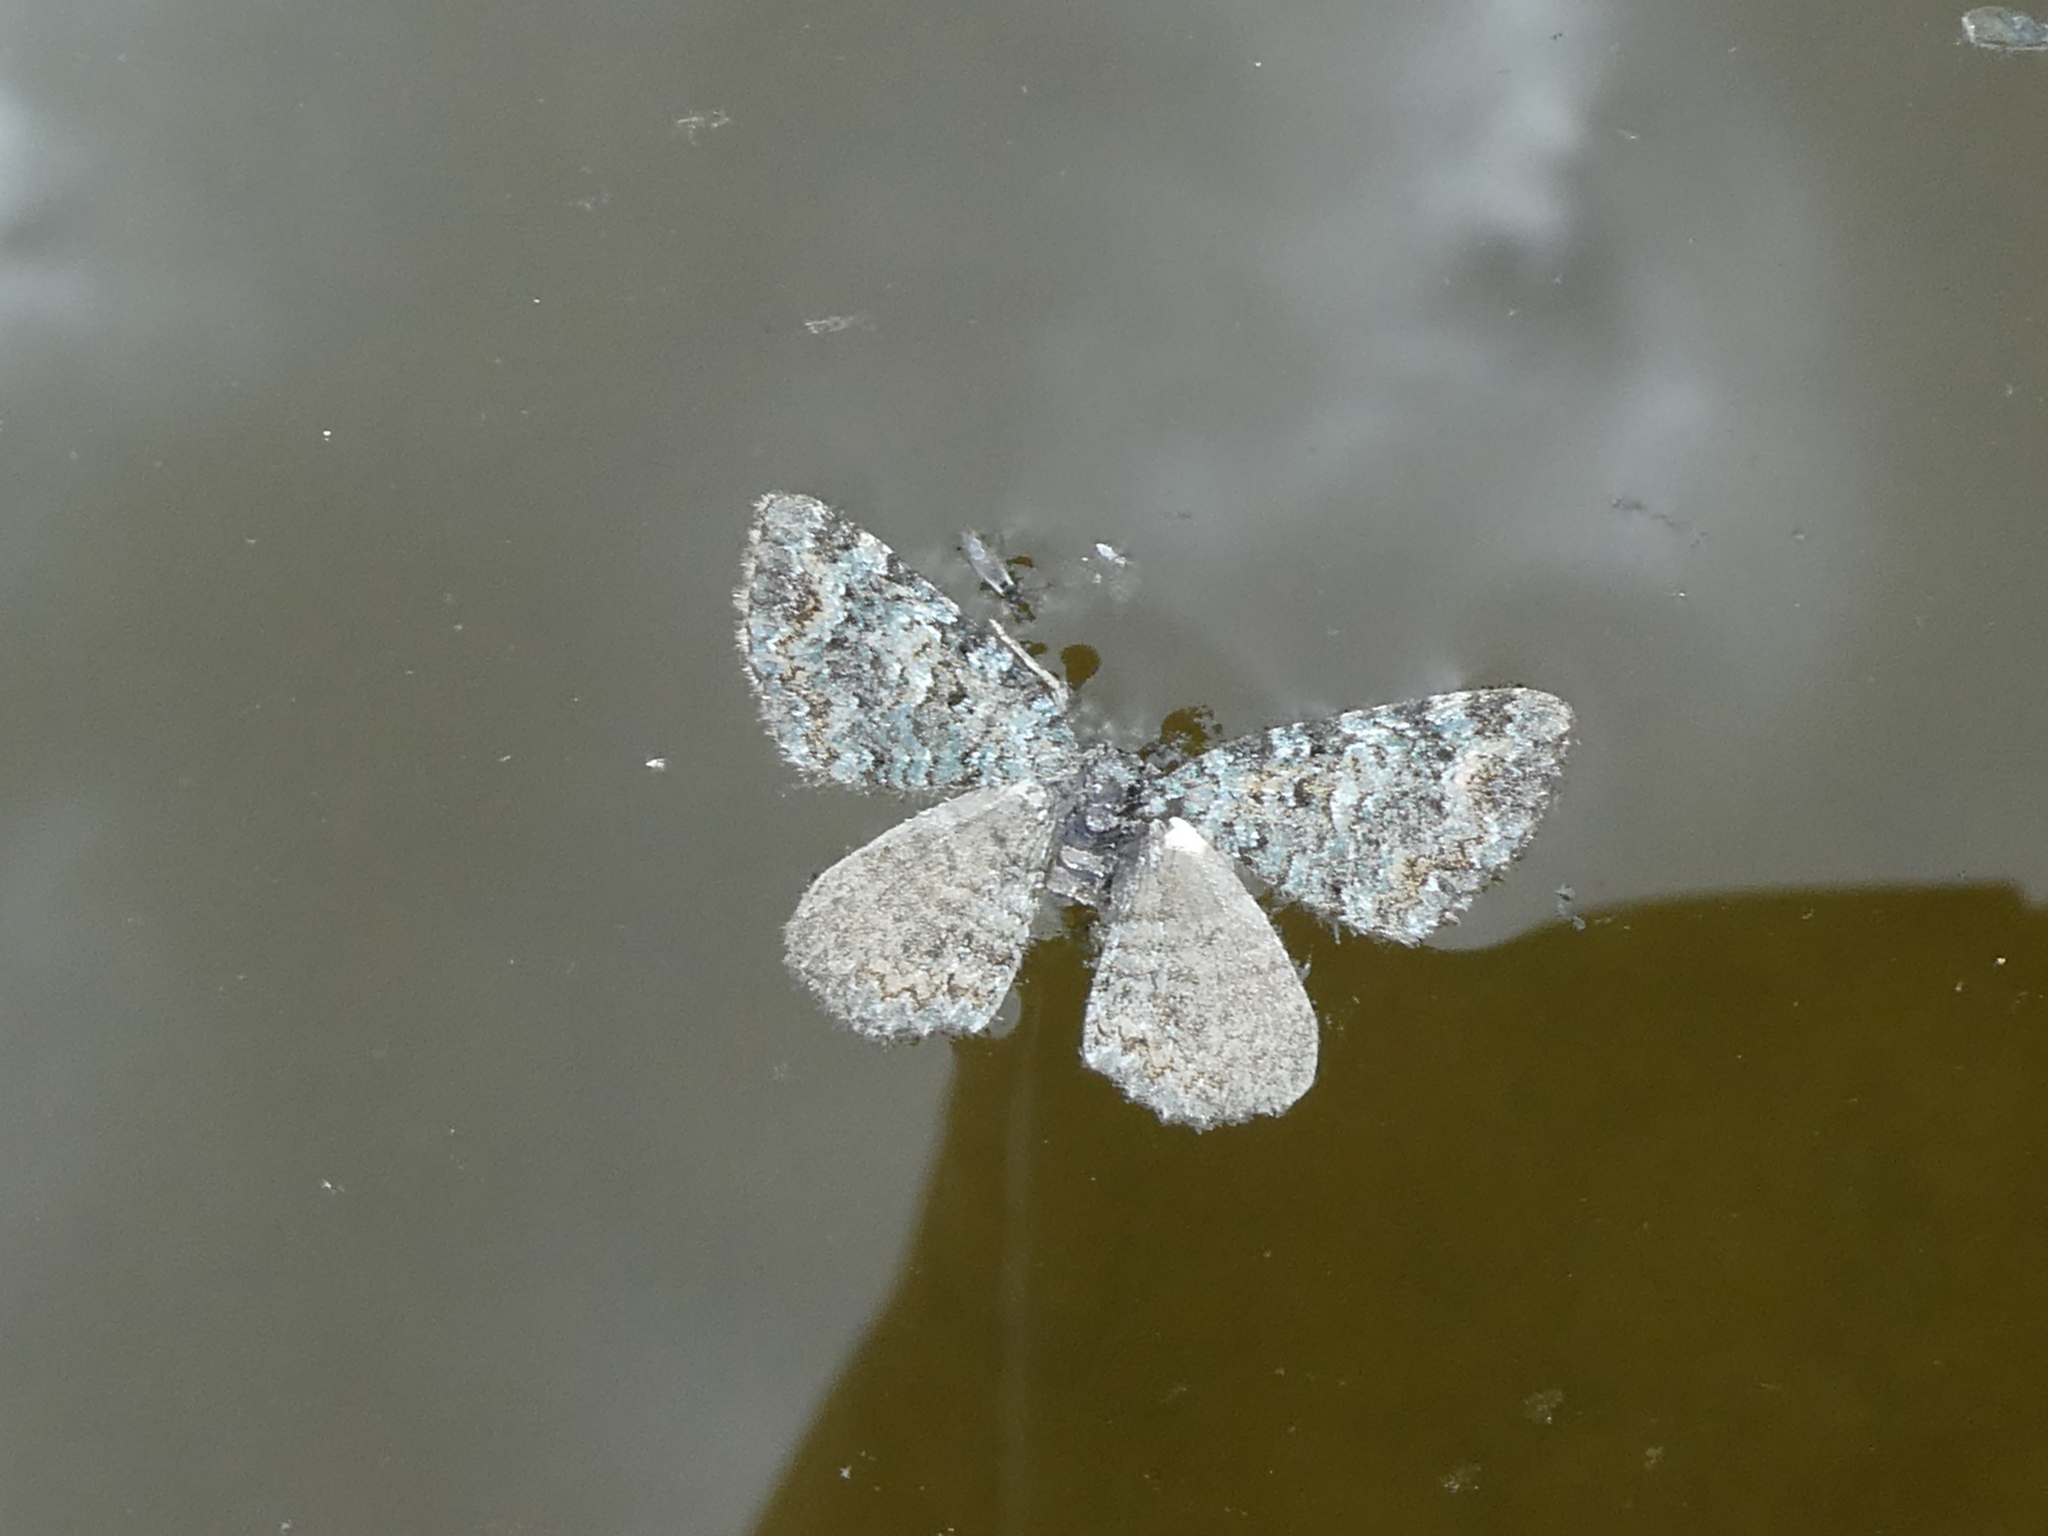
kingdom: Animalia
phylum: Arthropoda
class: Insecta
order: Lepidoptera
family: Geometridae
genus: Chloroclystis
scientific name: Chloroclystis nereis
